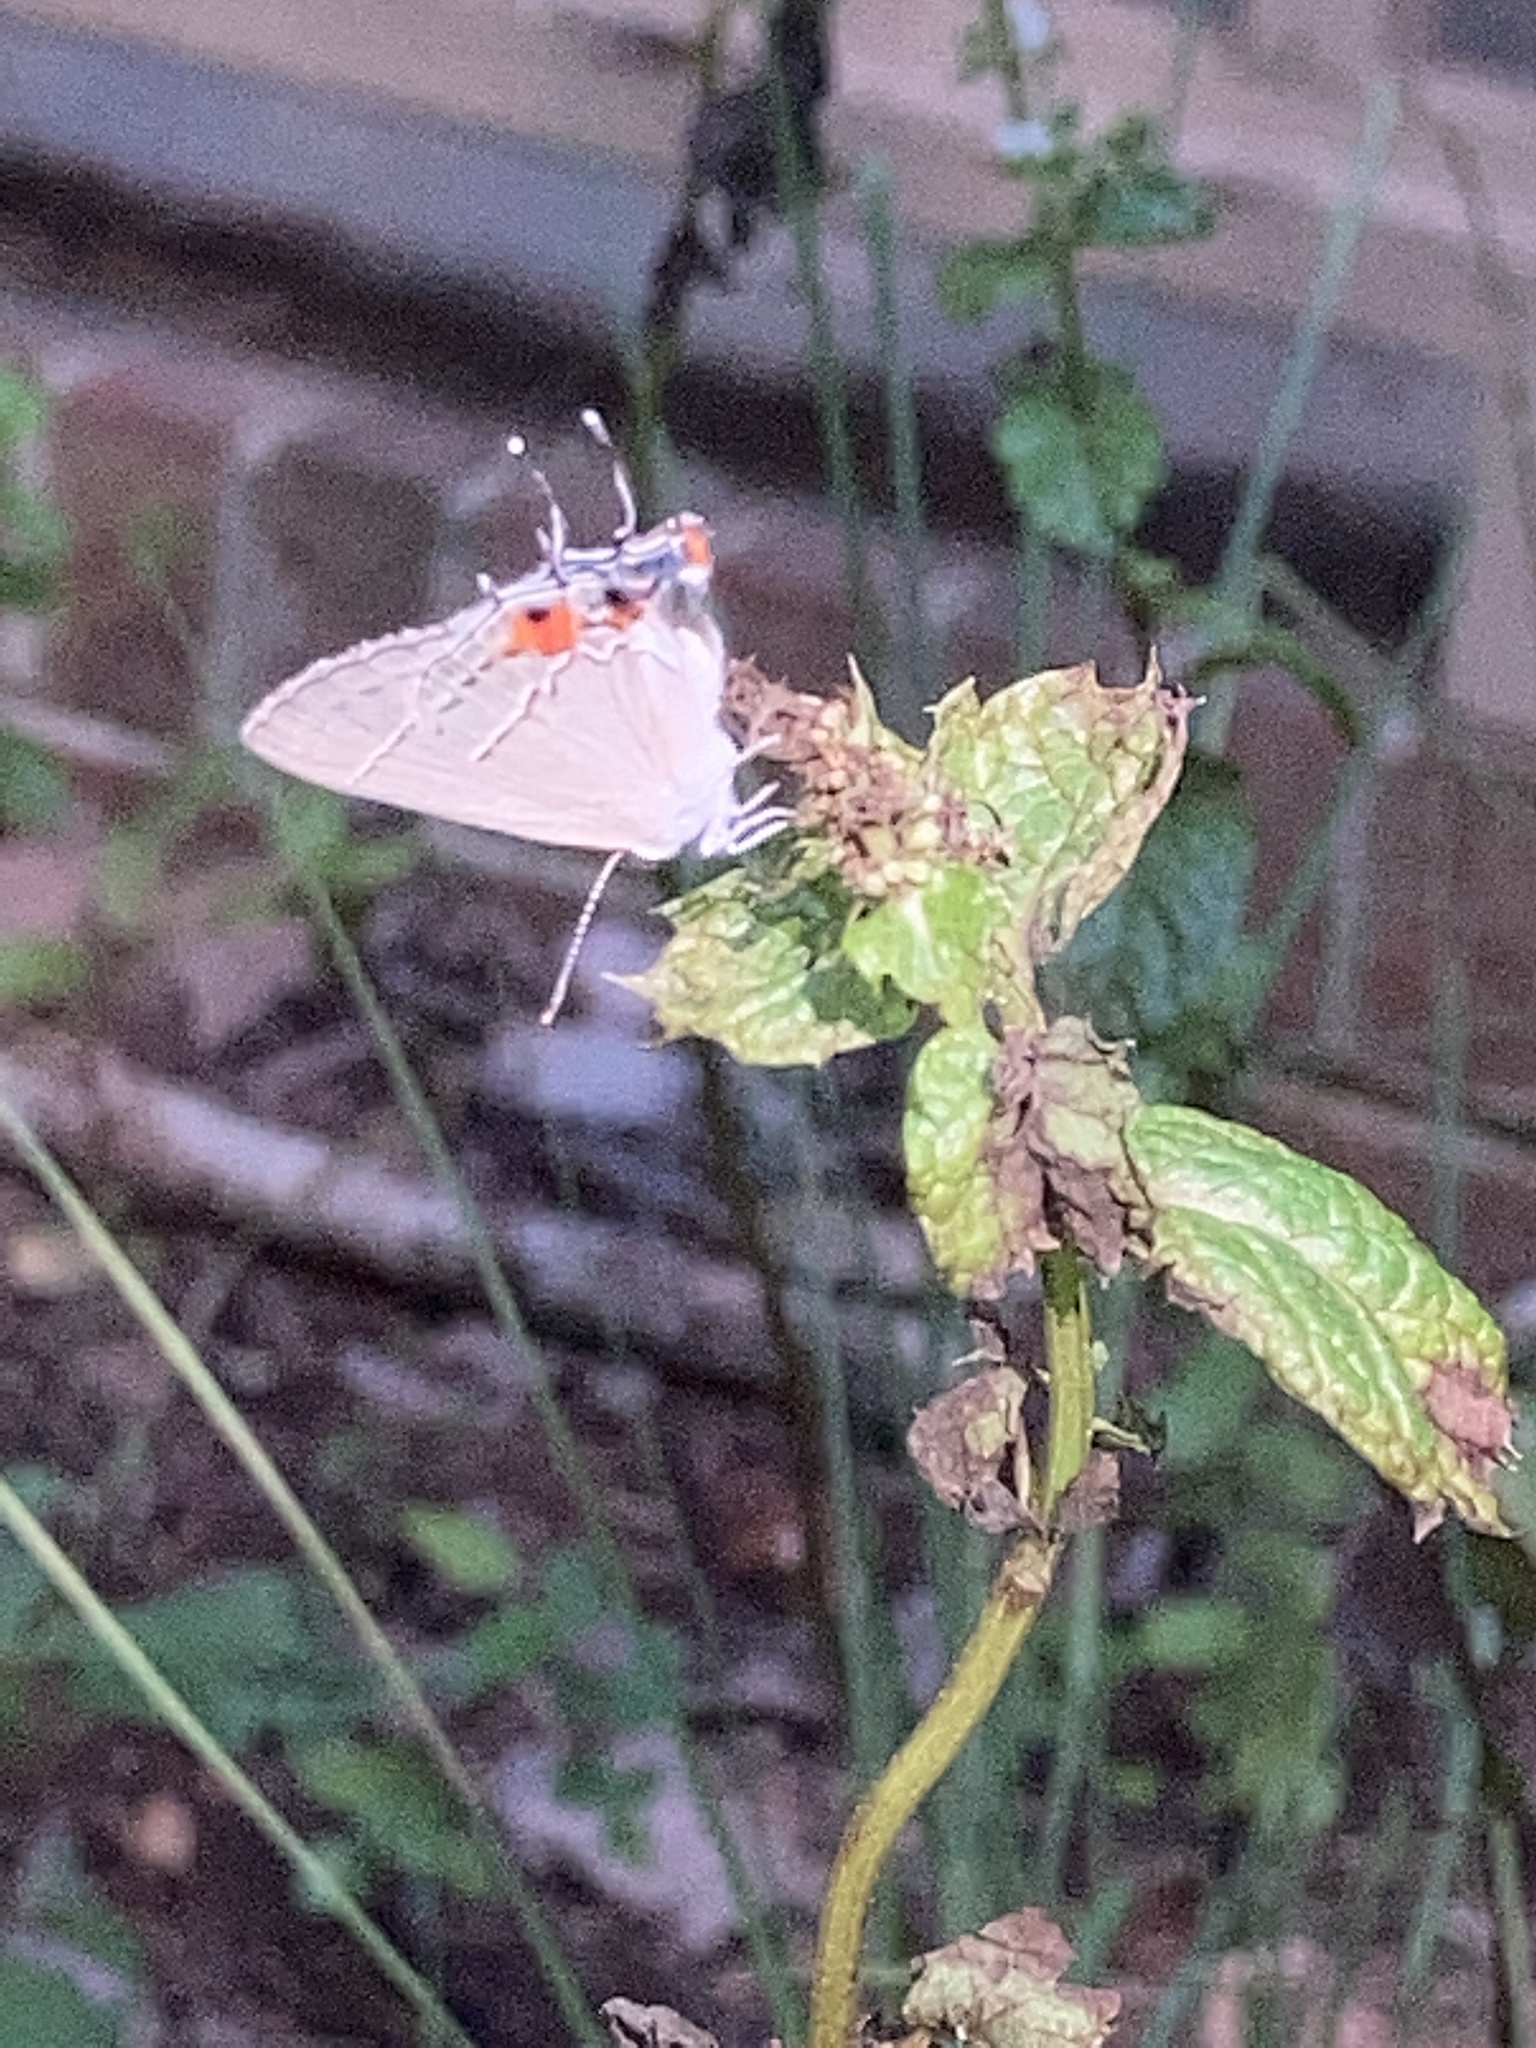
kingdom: Animalia
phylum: Arthropoda
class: Insecta
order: Lepidoptera
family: Lycaenidae
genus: Strymon
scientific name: Strymon melinus
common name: Gray hairstreak
